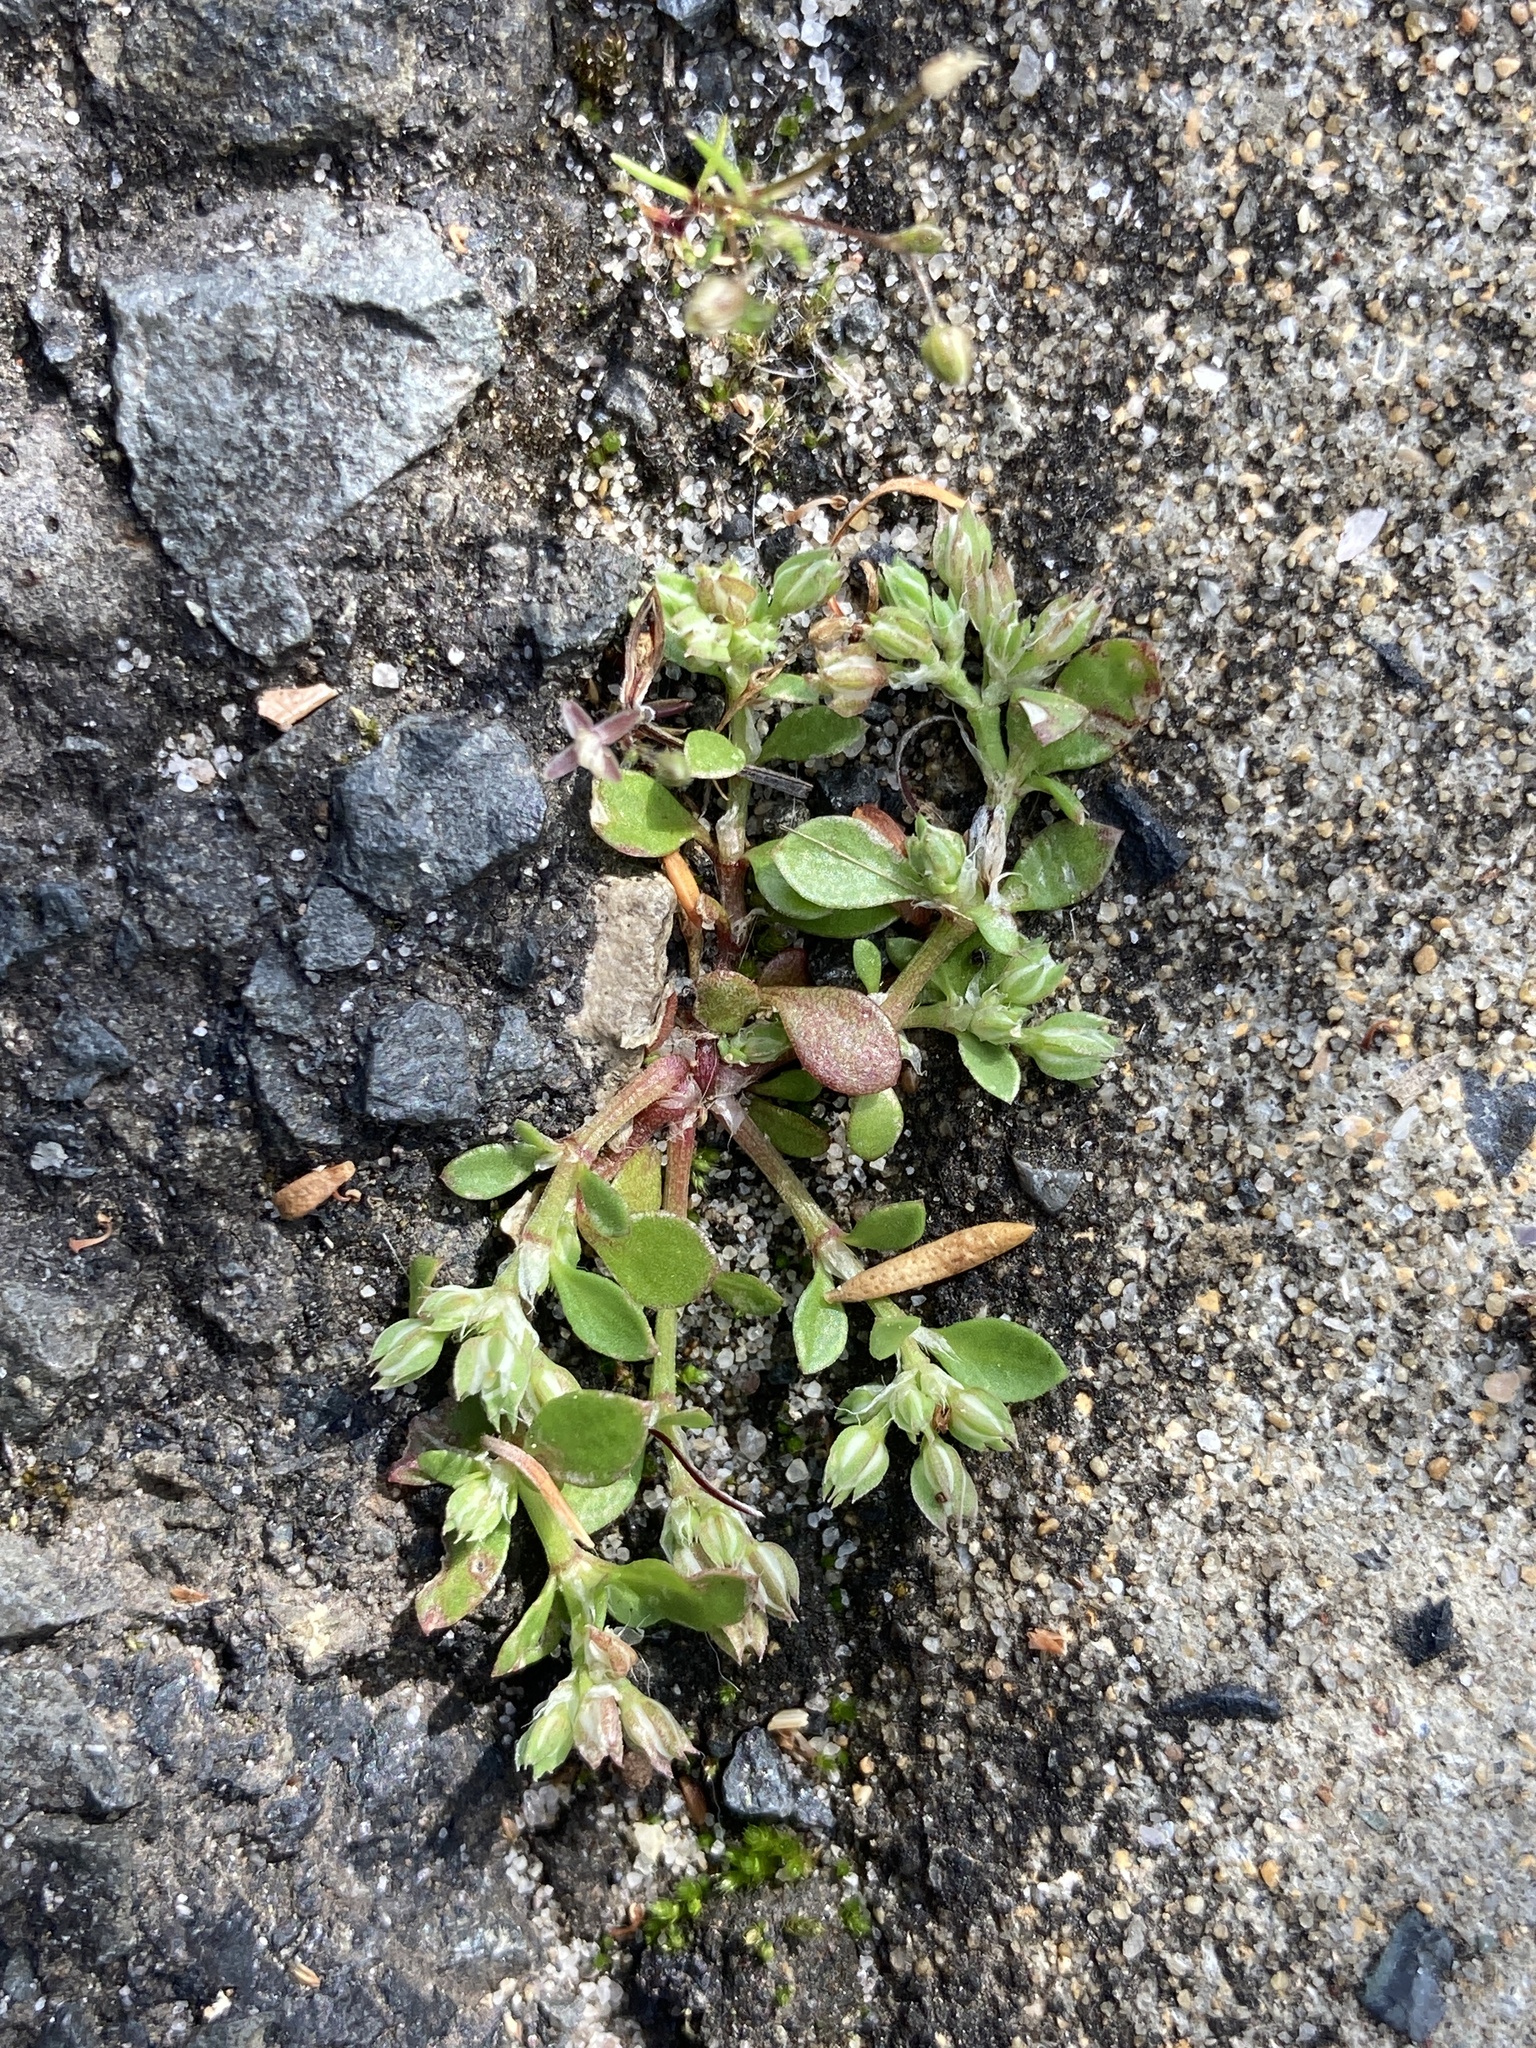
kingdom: Plantae
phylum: Tracheophyta
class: Magnoliopsida
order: Caryophyllales
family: Caryophyllaceae
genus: Polycarpon
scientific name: Polycarpon tetraphyllum
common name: Four-leaved all-seed
